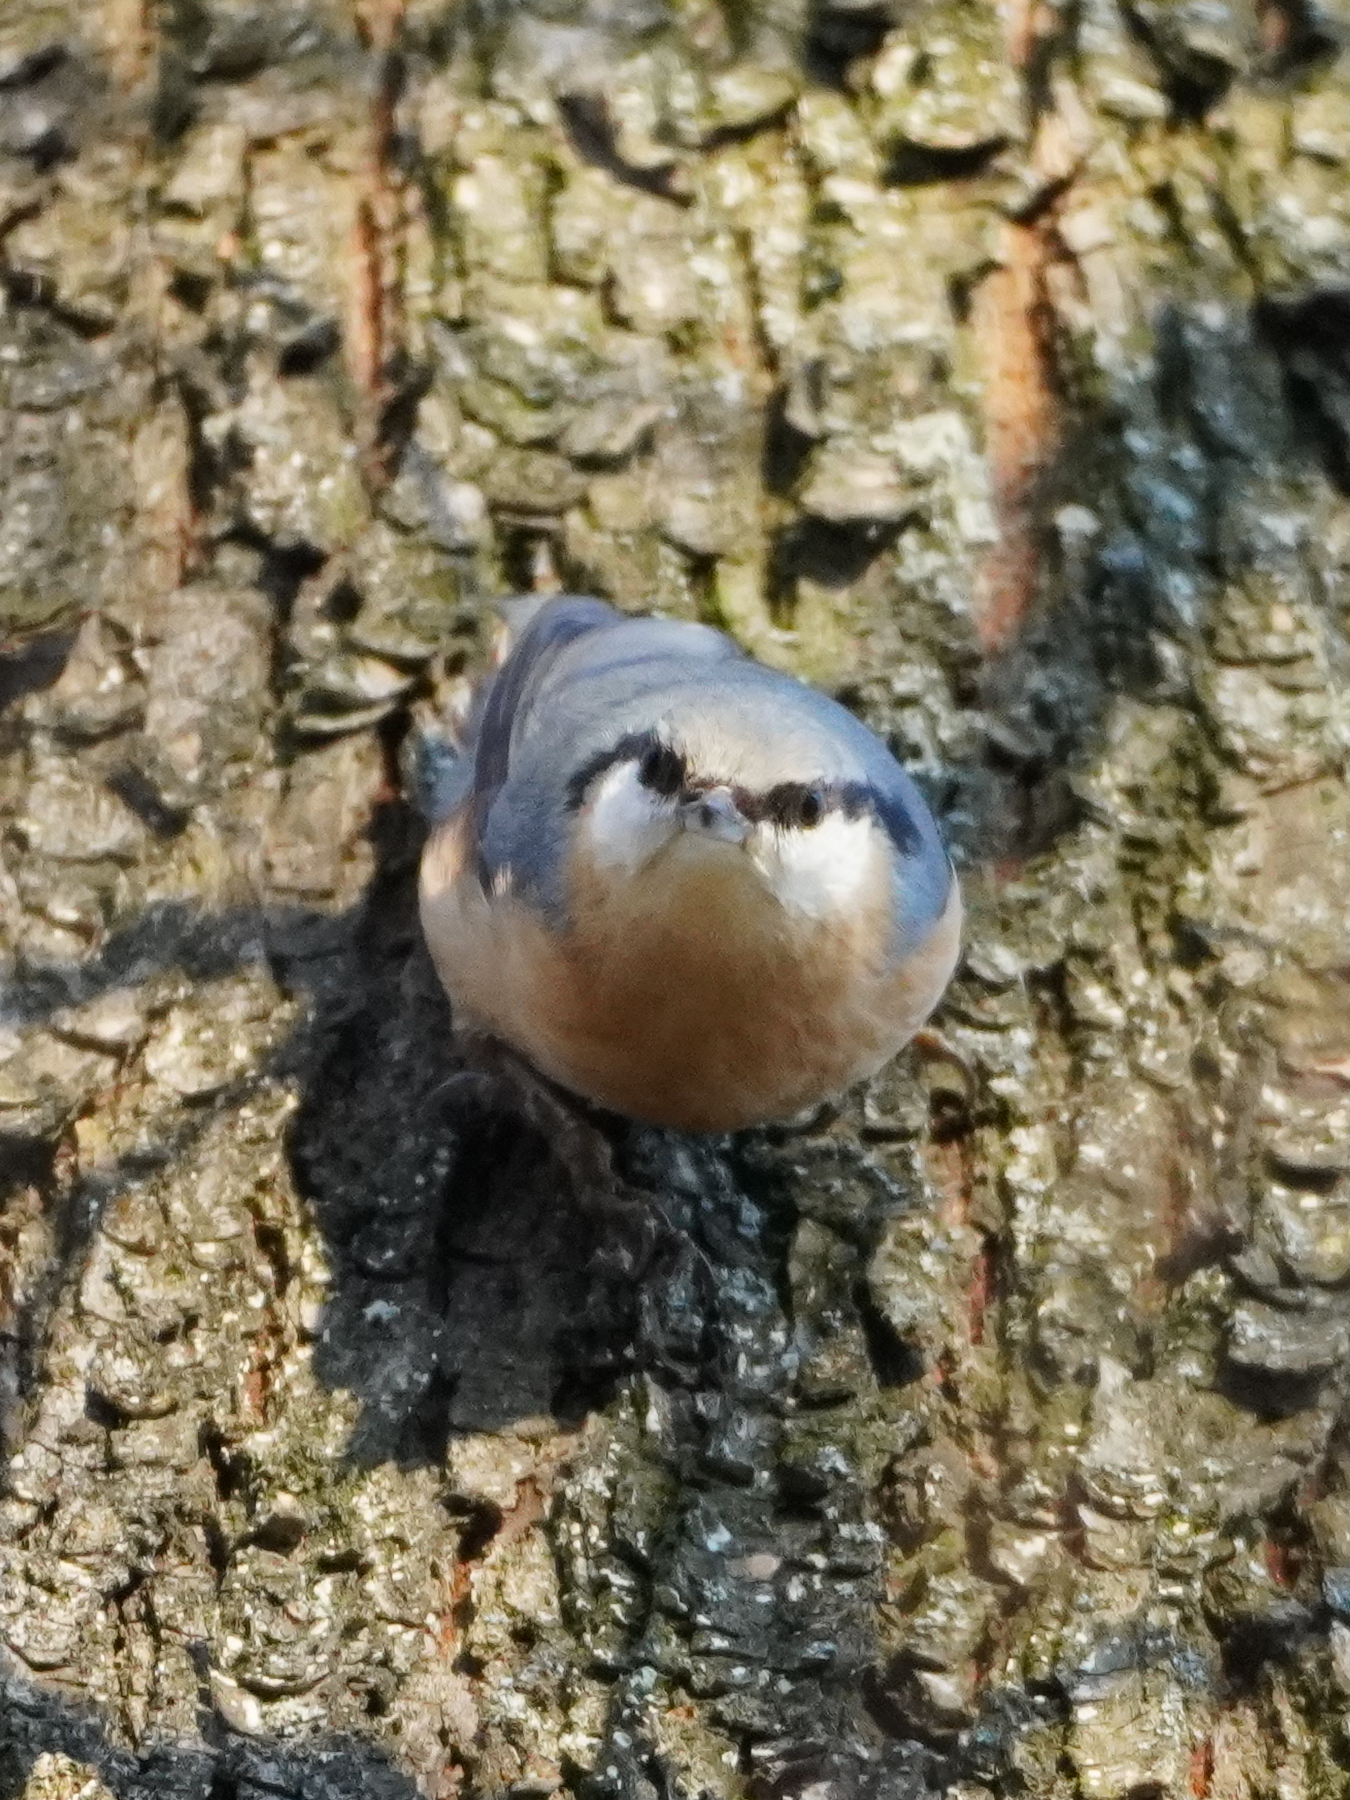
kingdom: Animalia
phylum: Chordata
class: Aves
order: Passeriformes
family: Sittidae
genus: Sitta
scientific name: Sitta europaea
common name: Eurasian nuthatch
